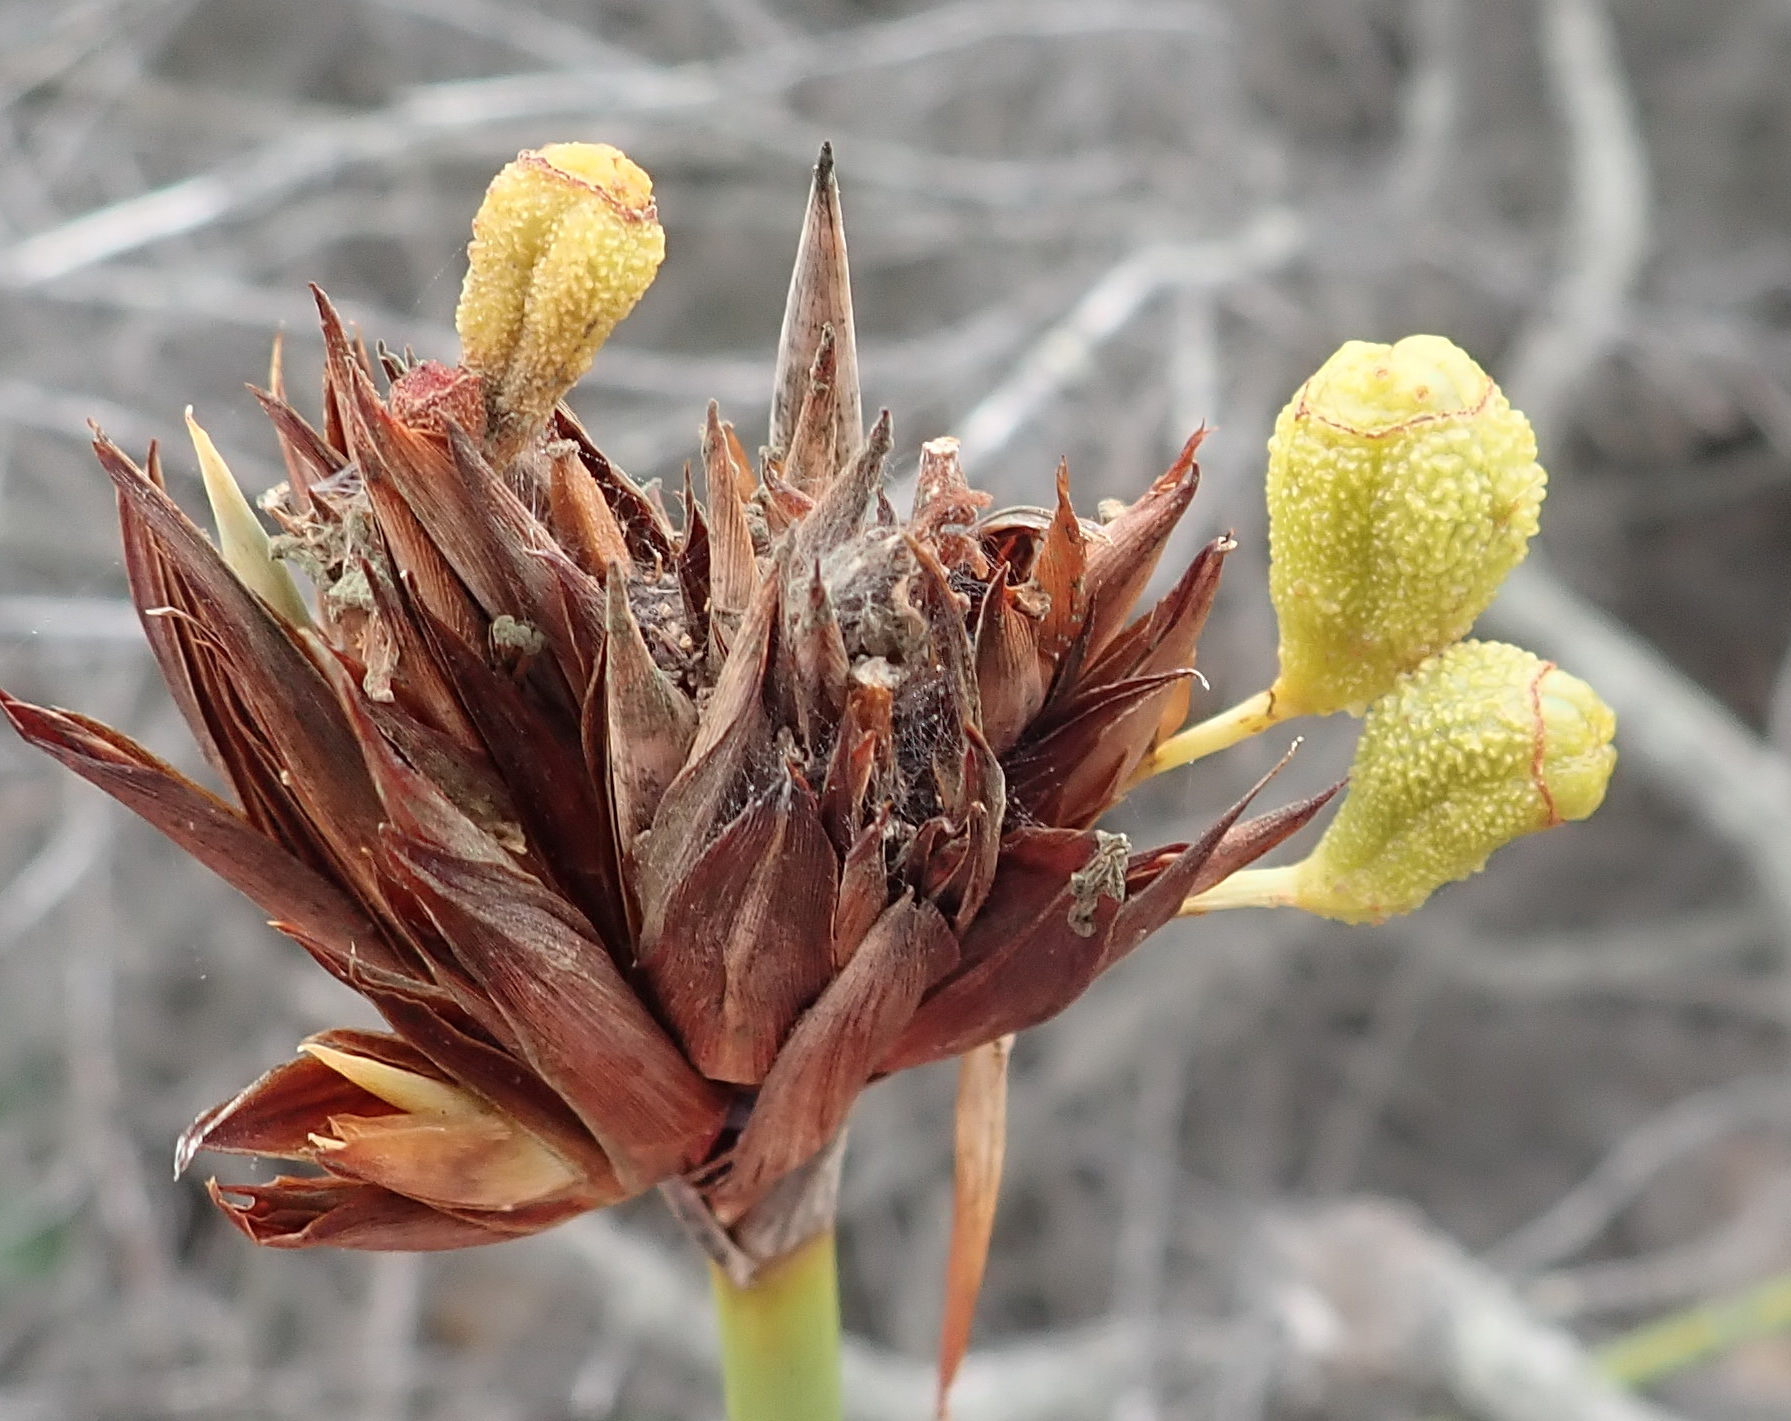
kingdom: Plantae
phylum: Tracheophyta
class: Liliopsida
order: Asparagales
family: Iridaceae
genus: Bobartia
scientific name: Bobartia robusta
